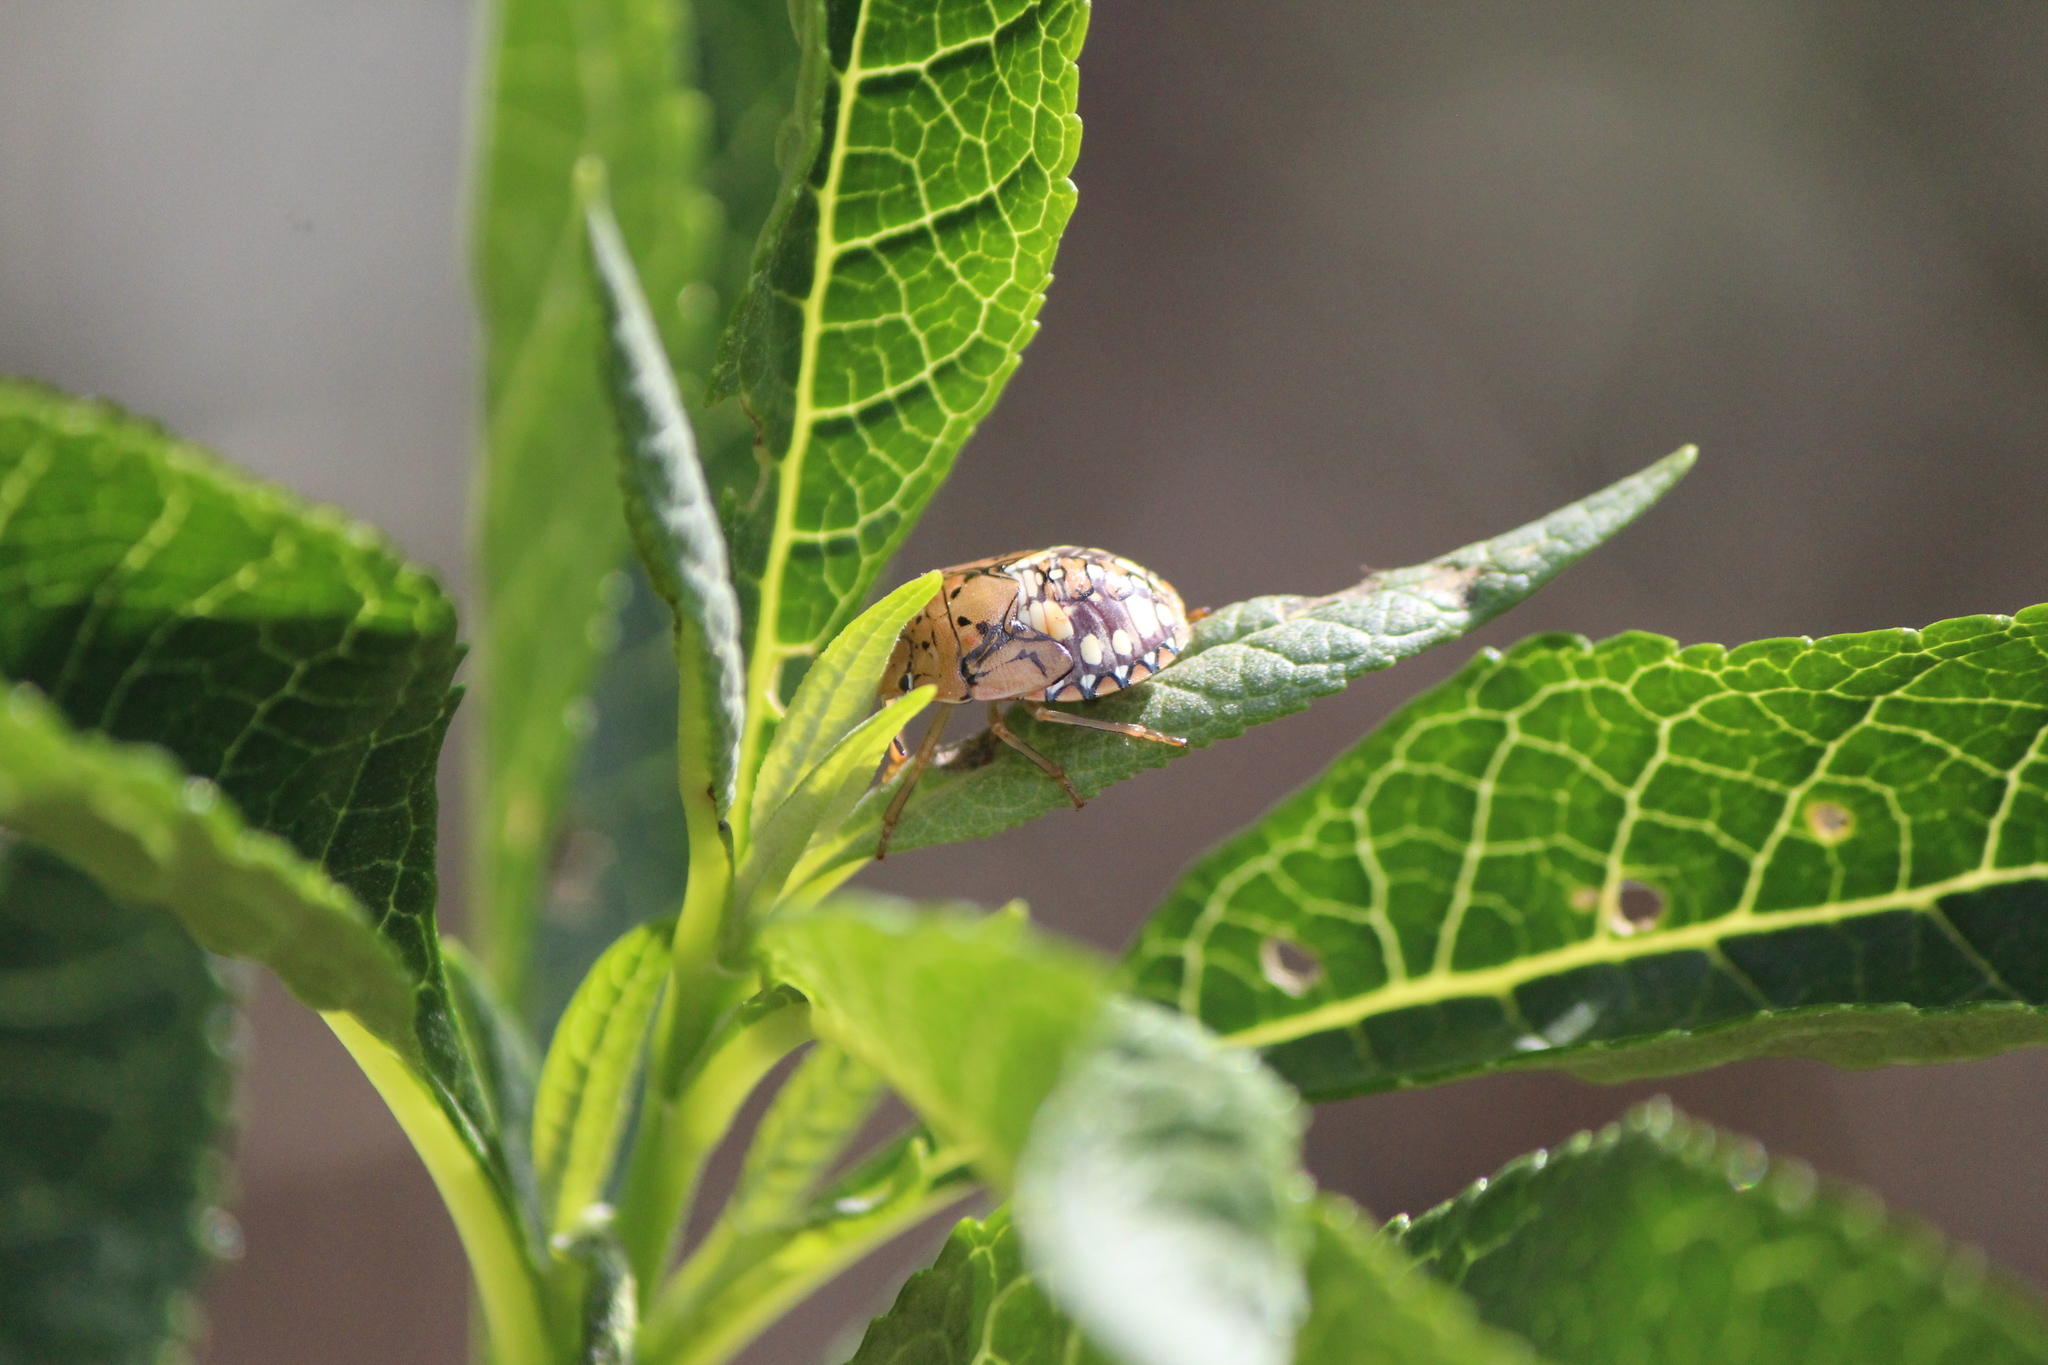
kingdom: Animalia
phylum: Arthropoda
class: Insecta
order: Hemiptera
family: Pentatomidae
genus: Acrosternum
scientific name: Acrosternum marginatum
